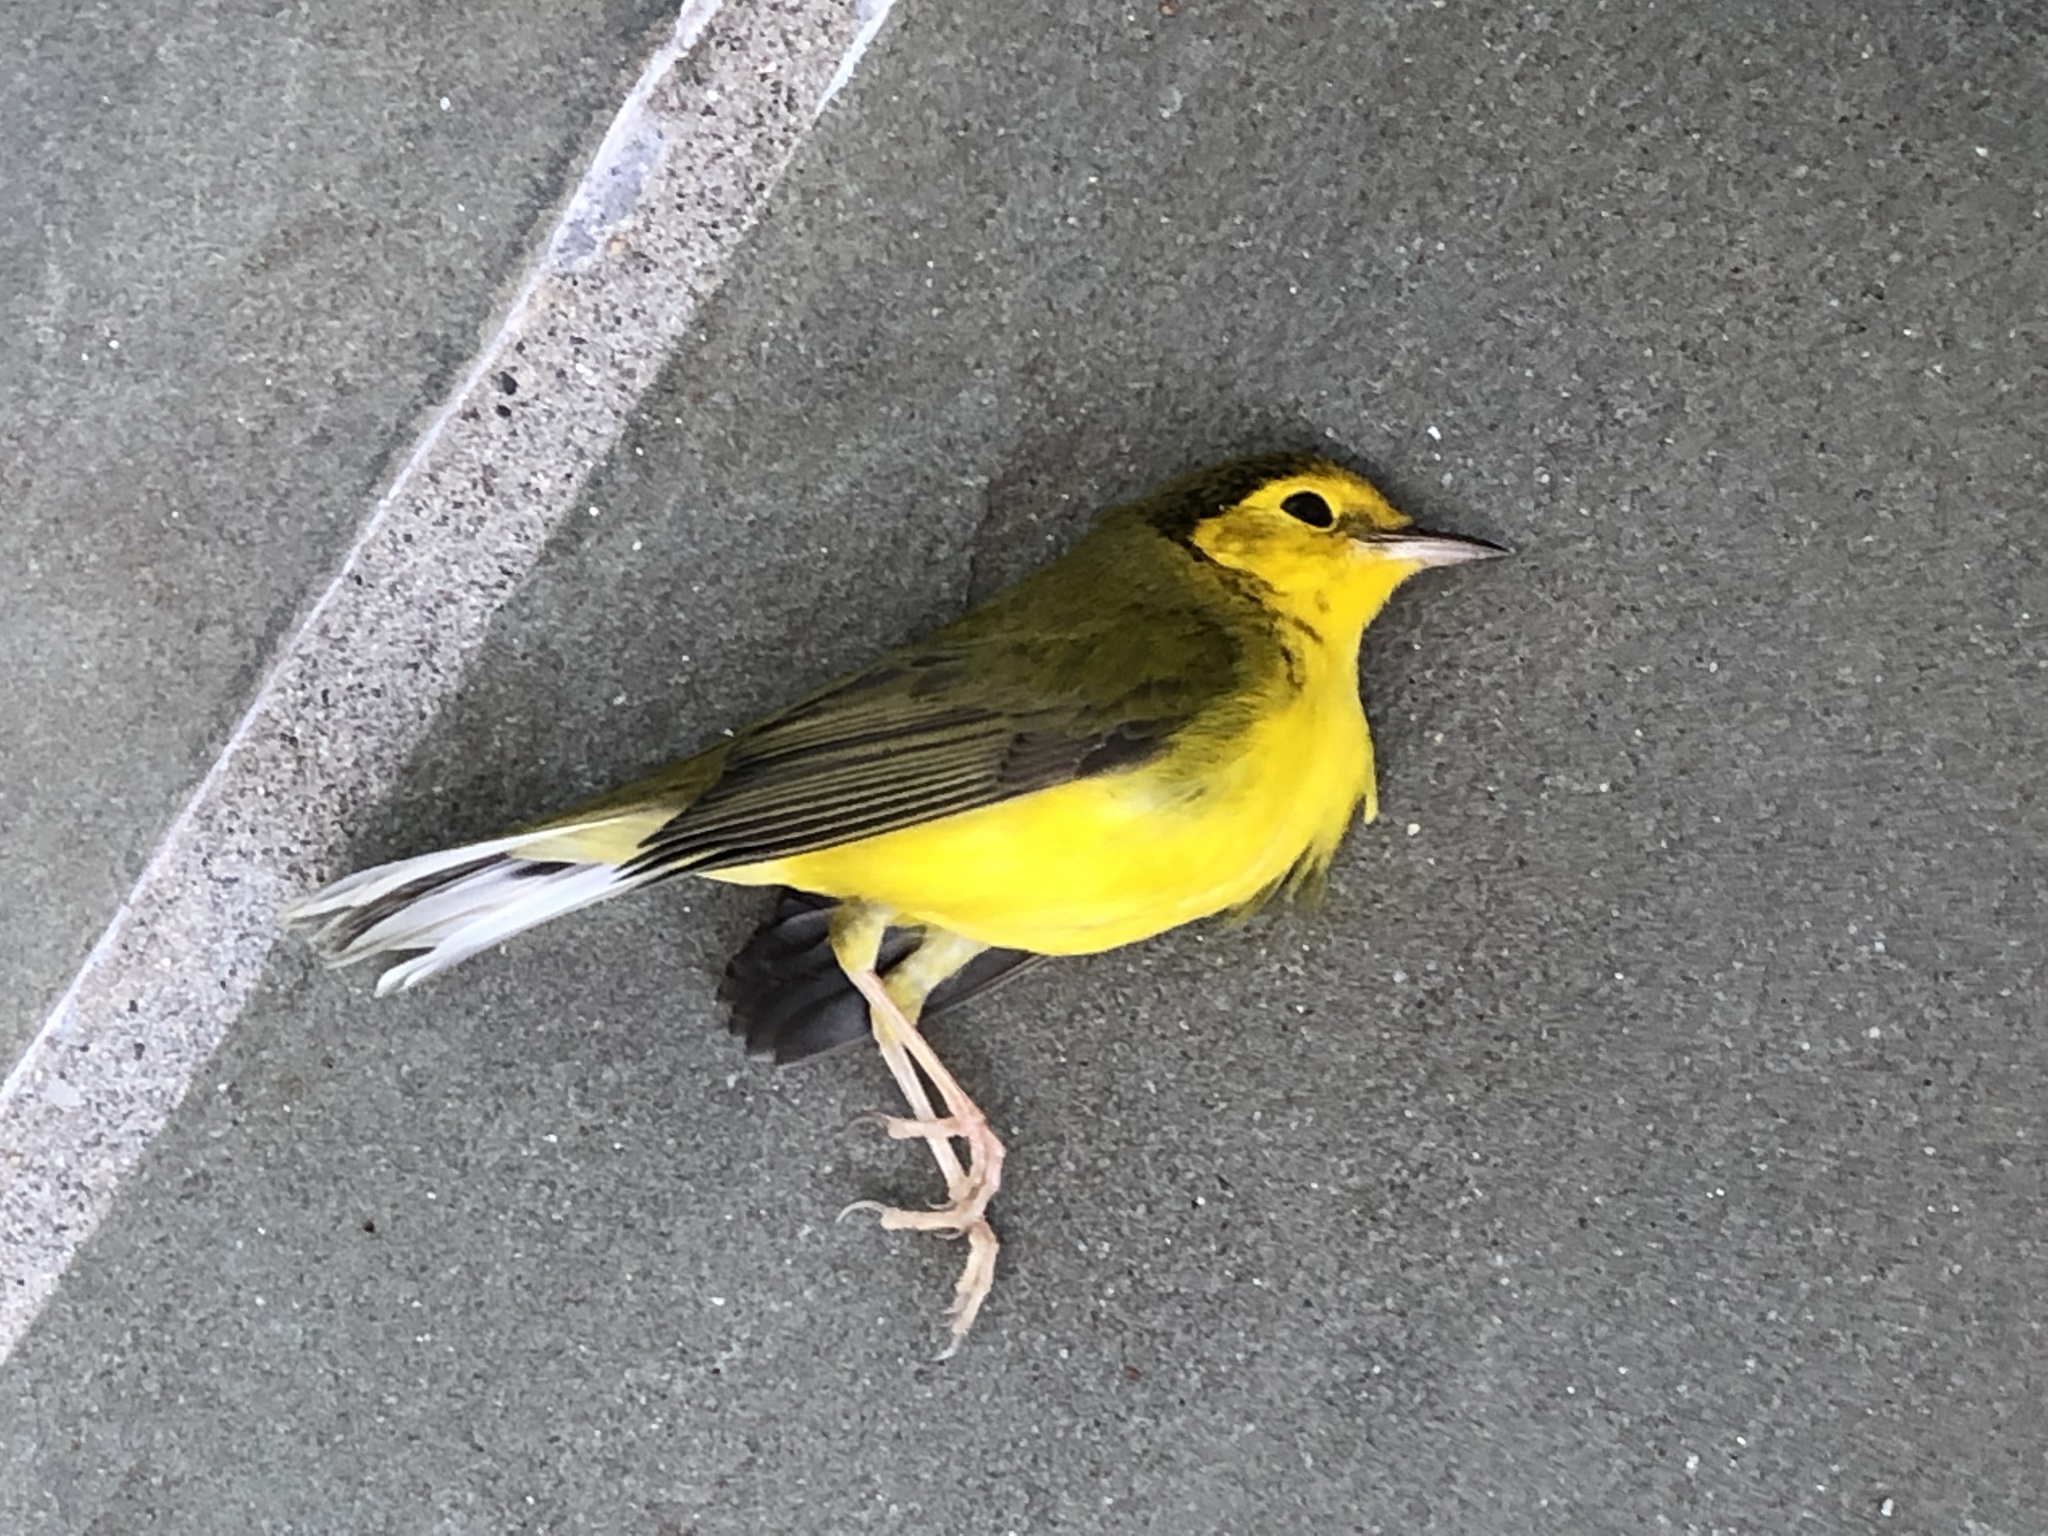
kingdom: Animalia
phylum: Chordata
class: Aves
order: Passeriformes
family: Parulidae
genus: Setophaga
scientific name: Setophaga citrina
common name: Hooded warbler
